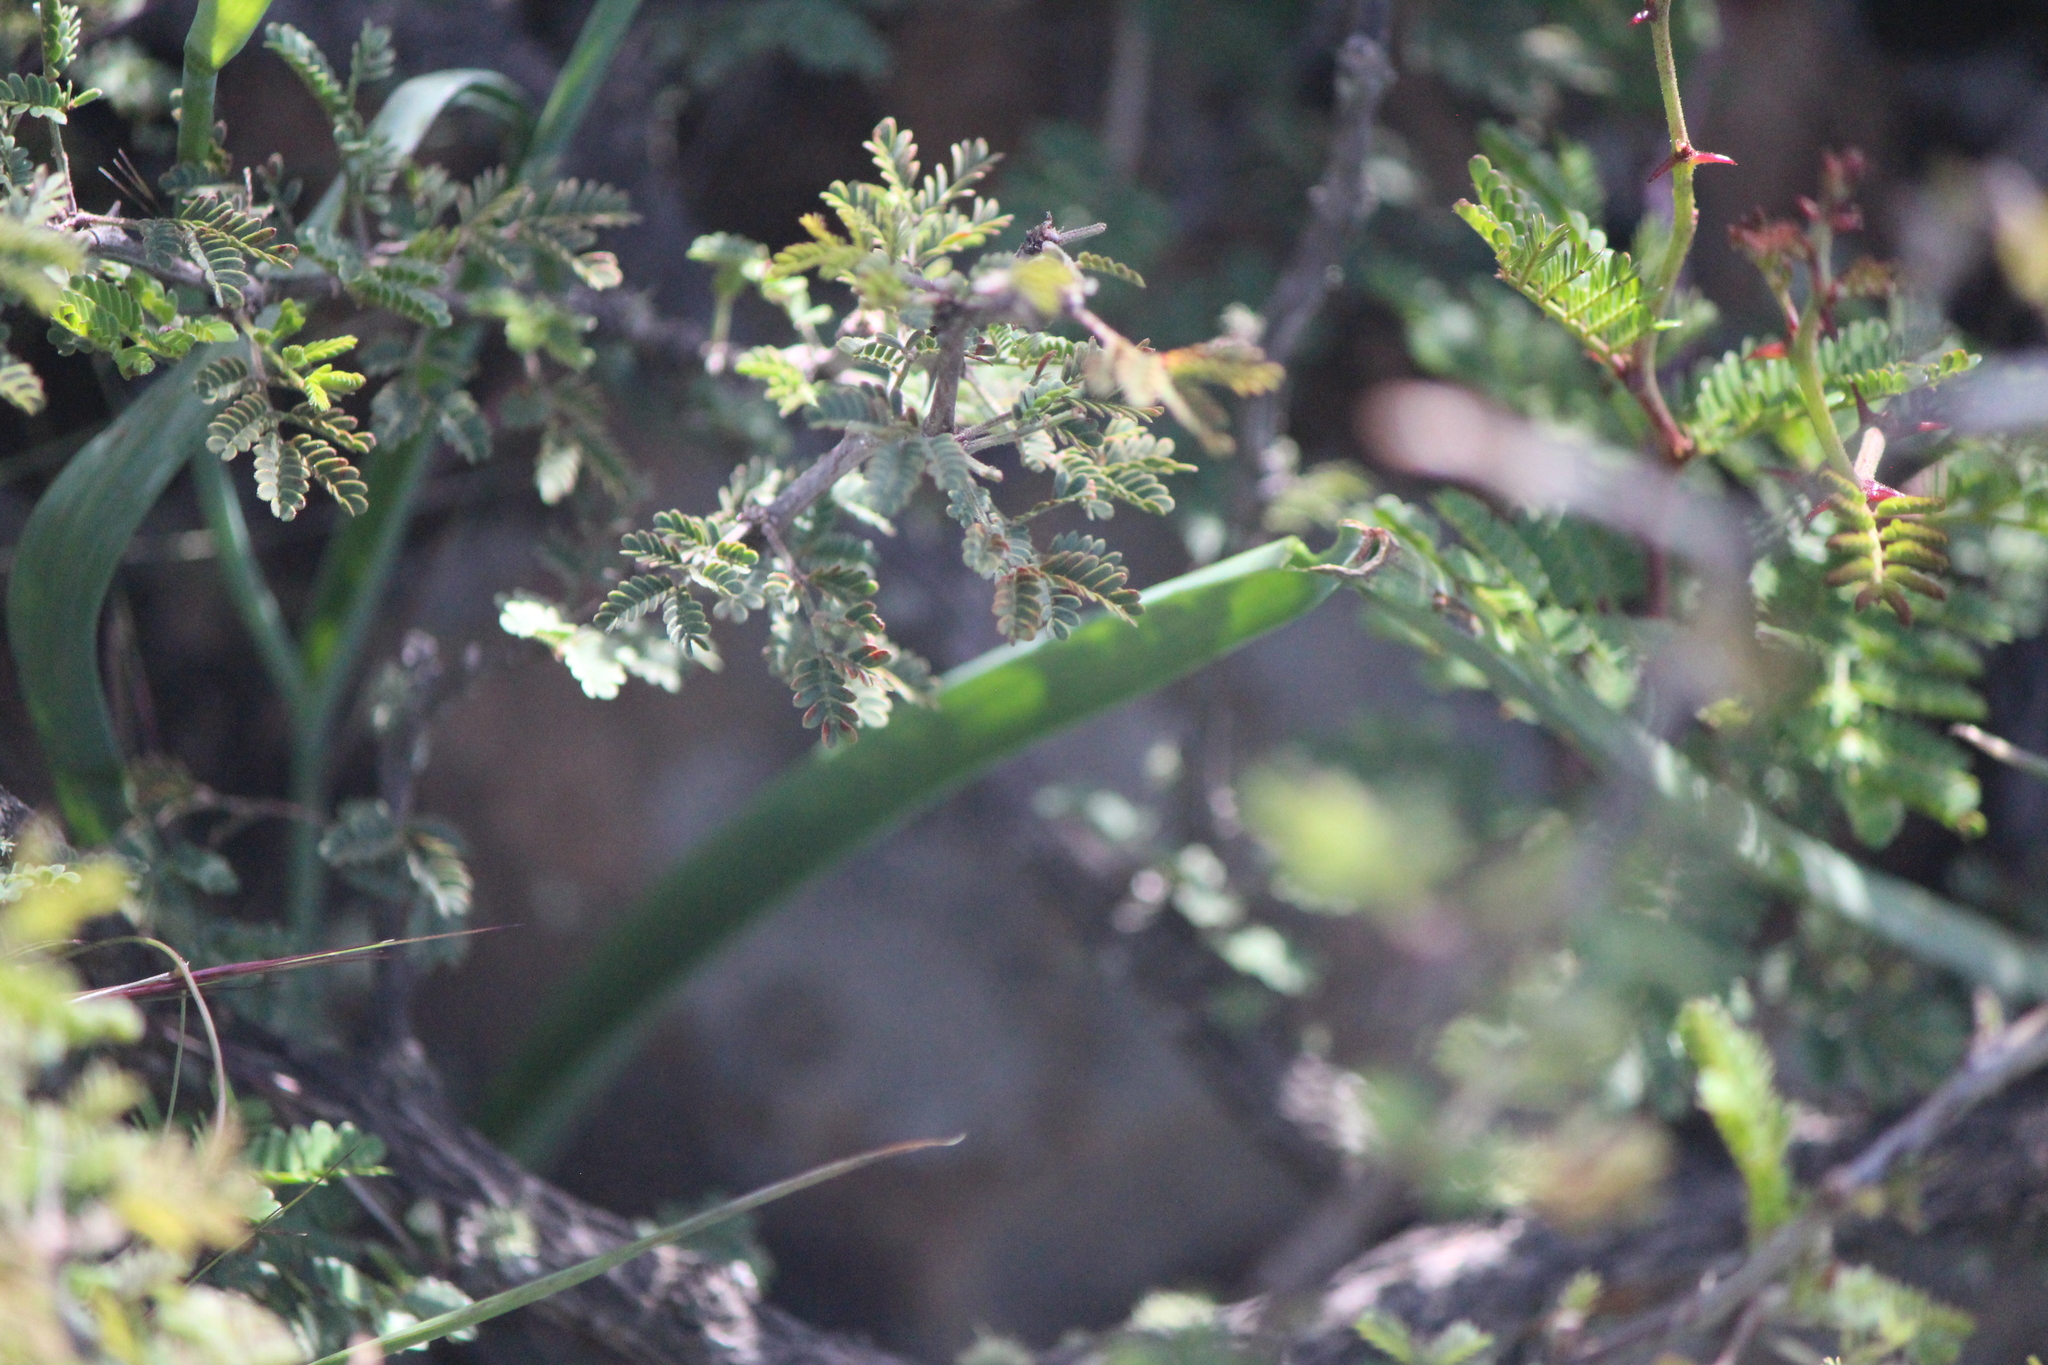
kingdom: Plantae
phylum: Tracheophyta
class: Liliopsida
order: Liliales
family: Liliaceae
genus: Calochortus
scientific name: Calochortus barbatus
